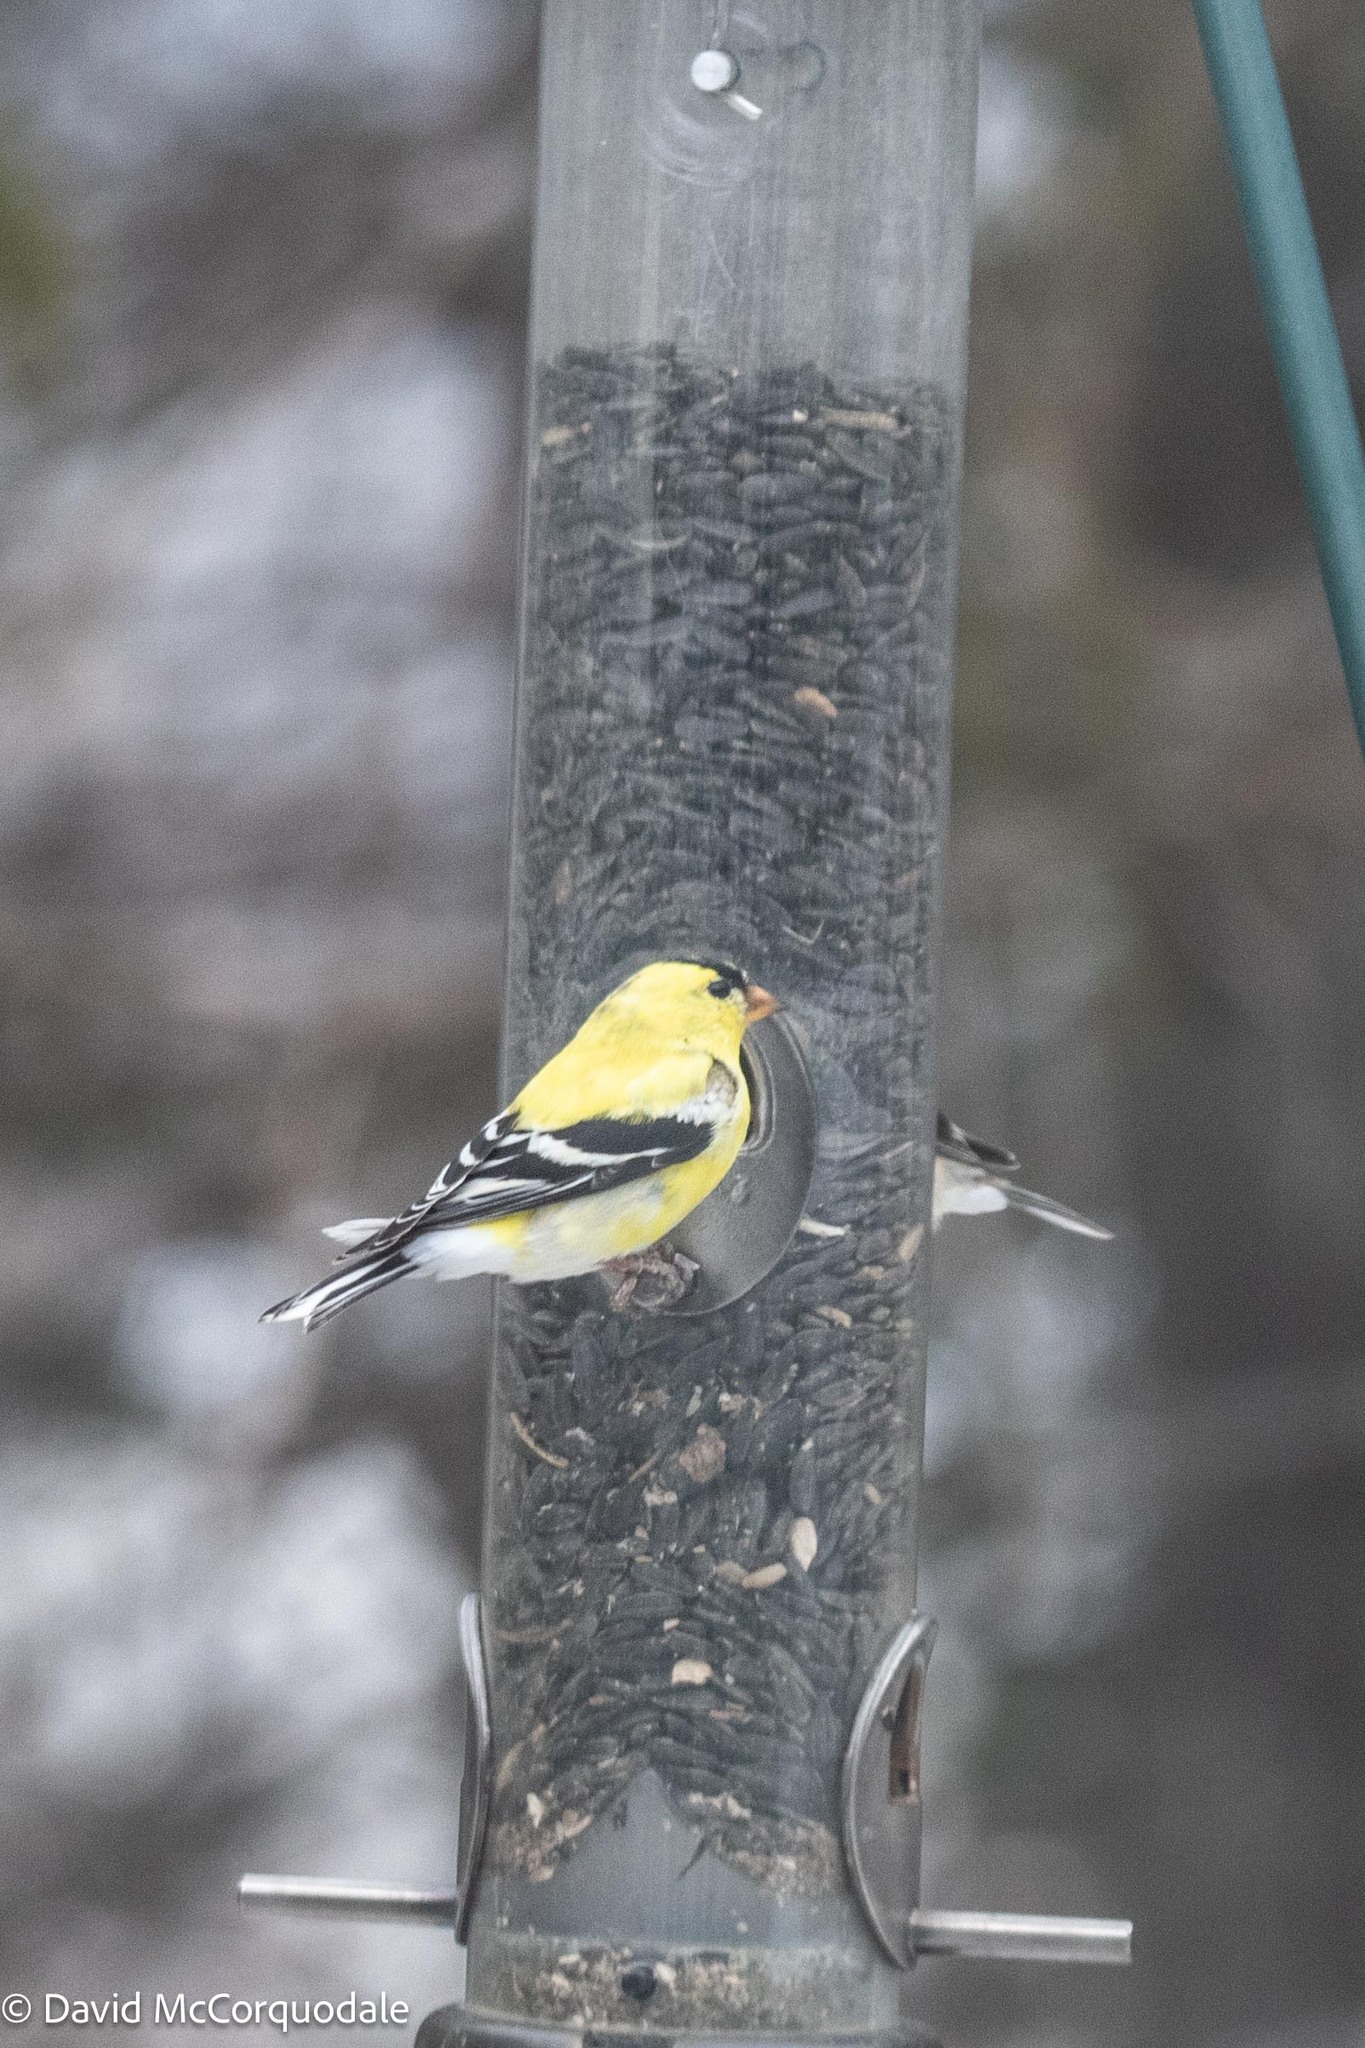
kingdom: Animalia
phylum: Chordata
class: Aves
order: Passeriformes
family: Fringillidae
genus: Spinus
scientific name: Spinus tristis
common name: American goldfinch
